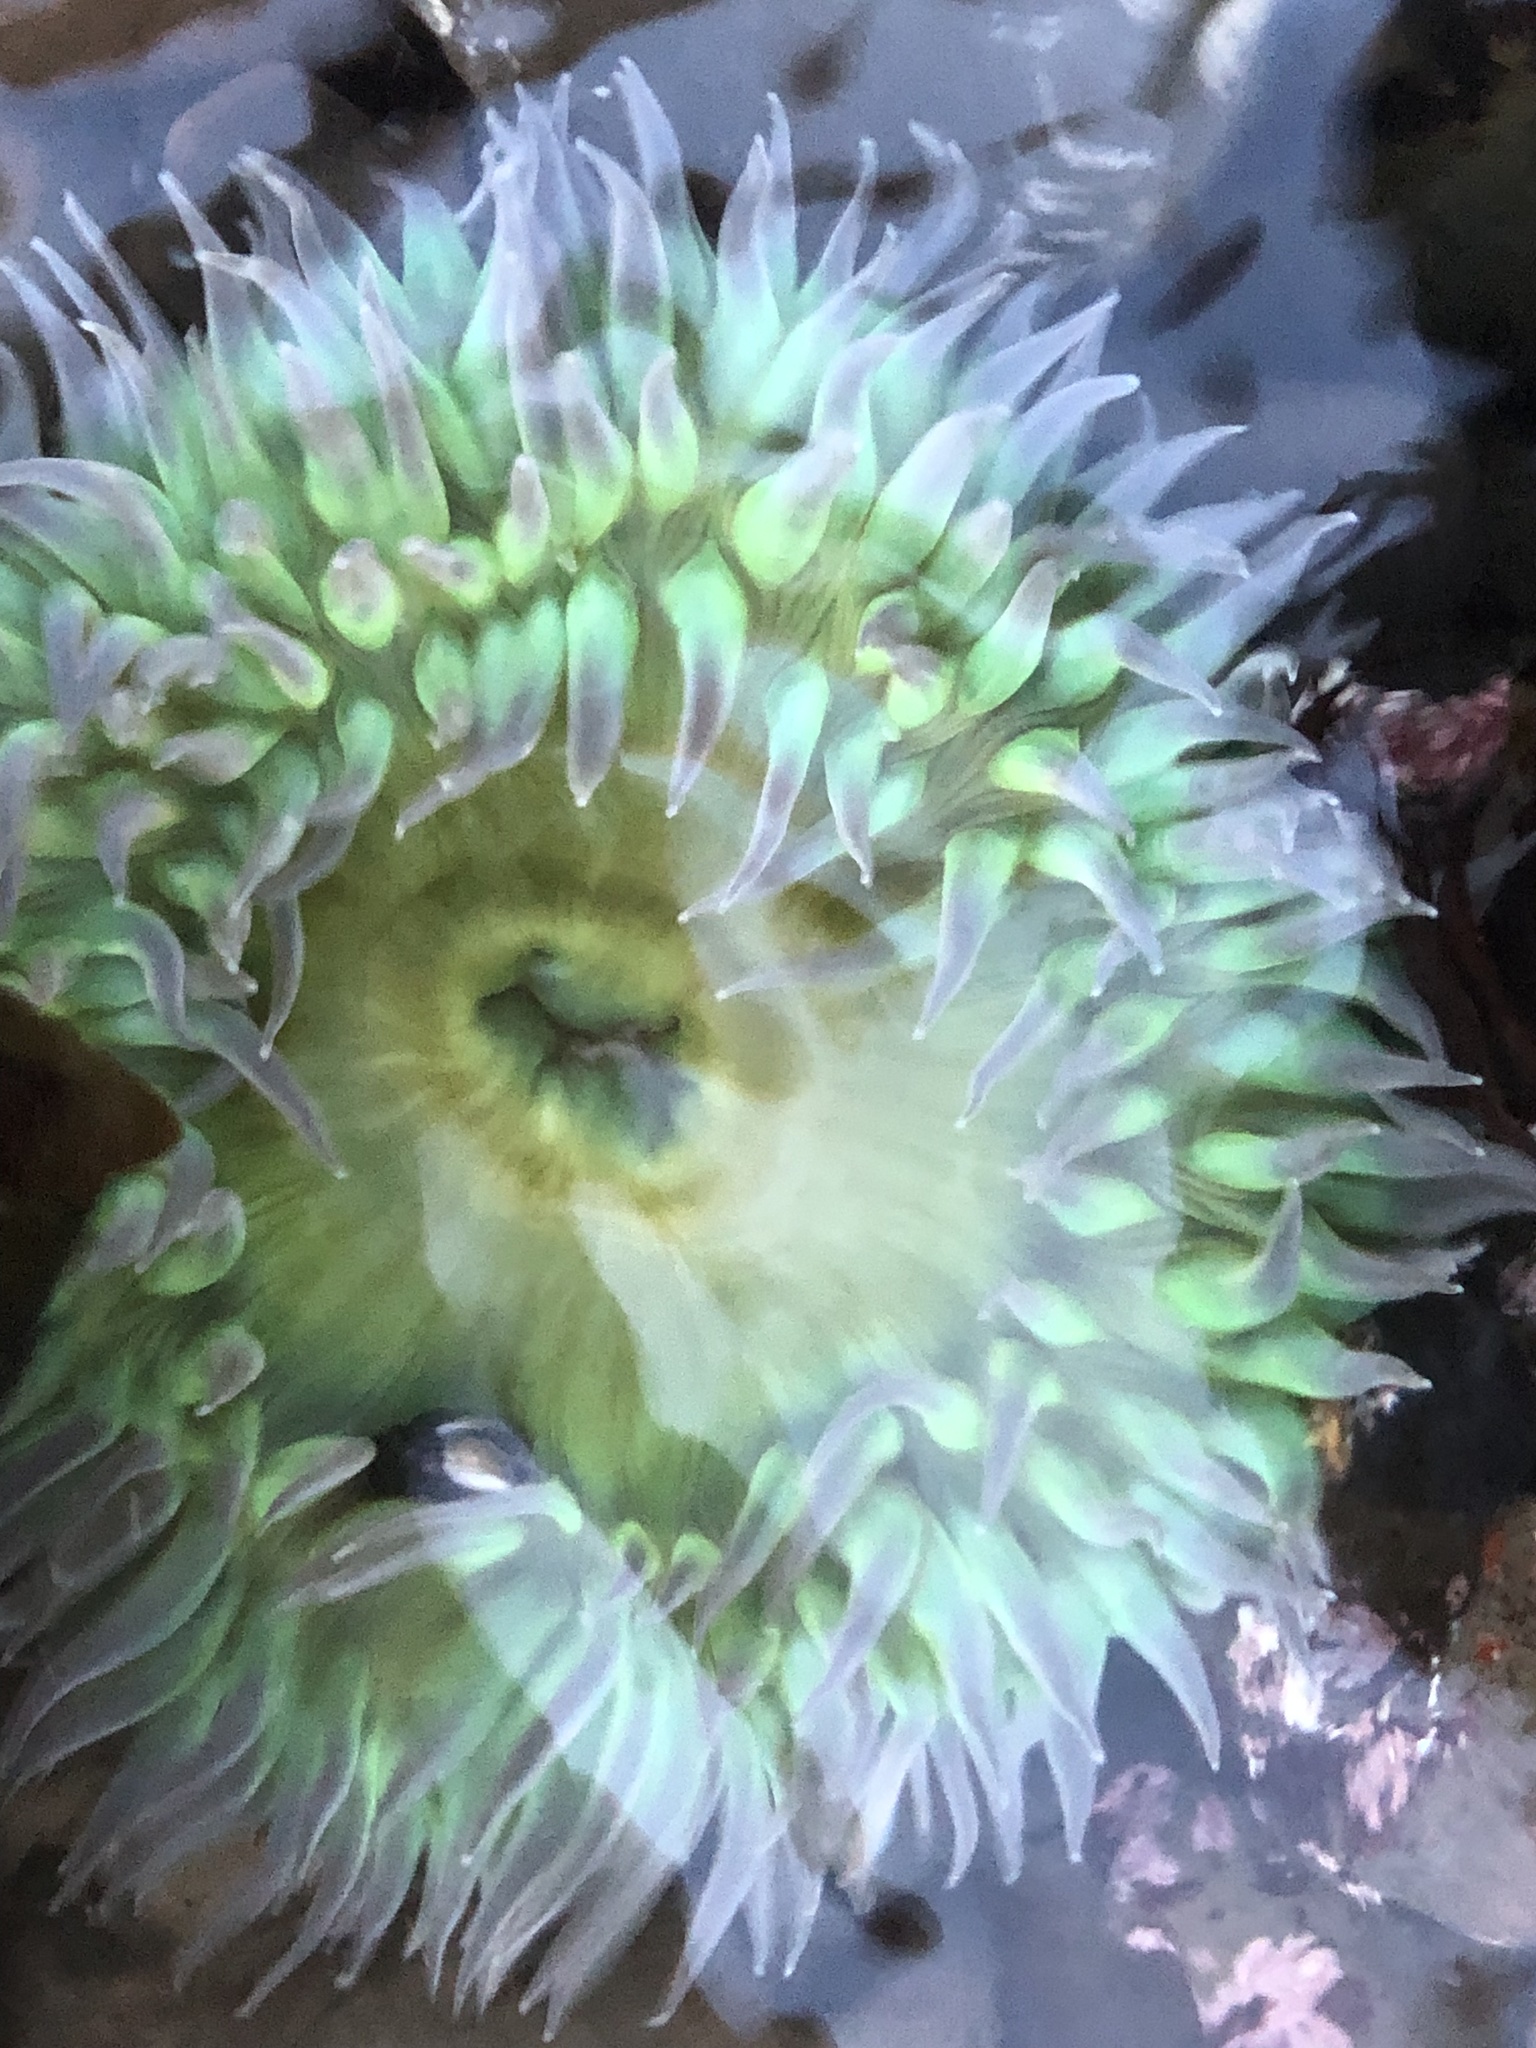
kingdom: Animalia
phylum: Cnidaria
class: Anthozoa
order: Actiniaria
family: Actiniidae
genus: Anthopleura
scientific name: Anthopleura xanthogrammica
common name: Giant green anemone
